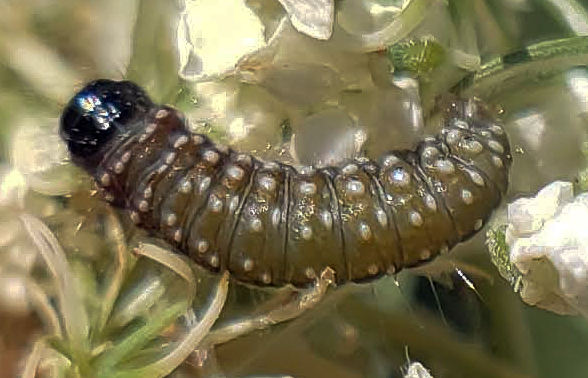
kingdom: Animalia
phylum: Arthropoda
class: Insecta
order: Lepidoptera
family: Depressariidae
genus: Depressaria
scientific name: Depressaria depressana
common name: Lost flat-body
